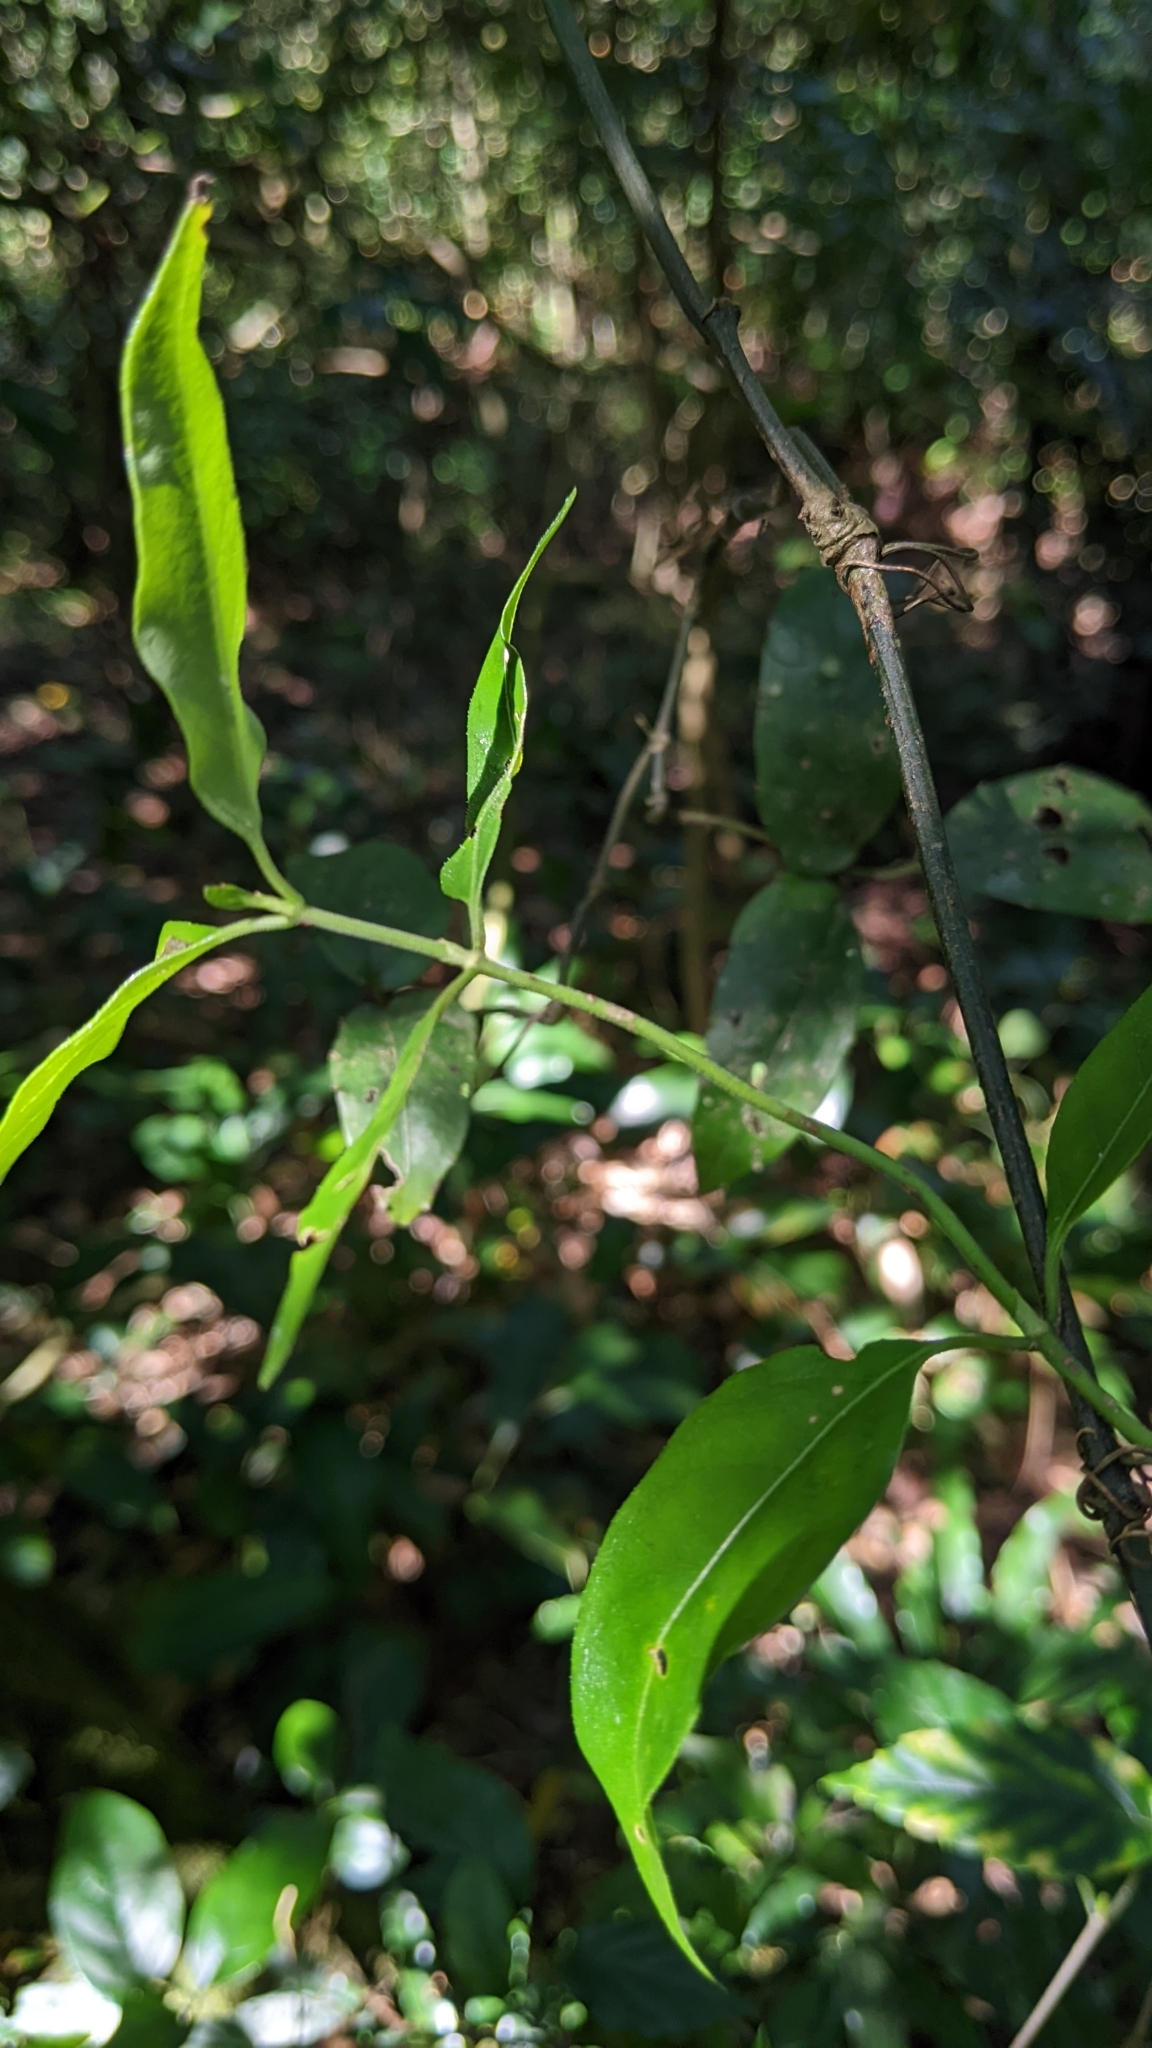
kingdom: Plantae
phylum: Tracheophyta
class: Magnoliopsida
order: Gentianales
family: Rubiaceae
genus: Gynochthodes
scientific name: Gynochthodes umbellata
